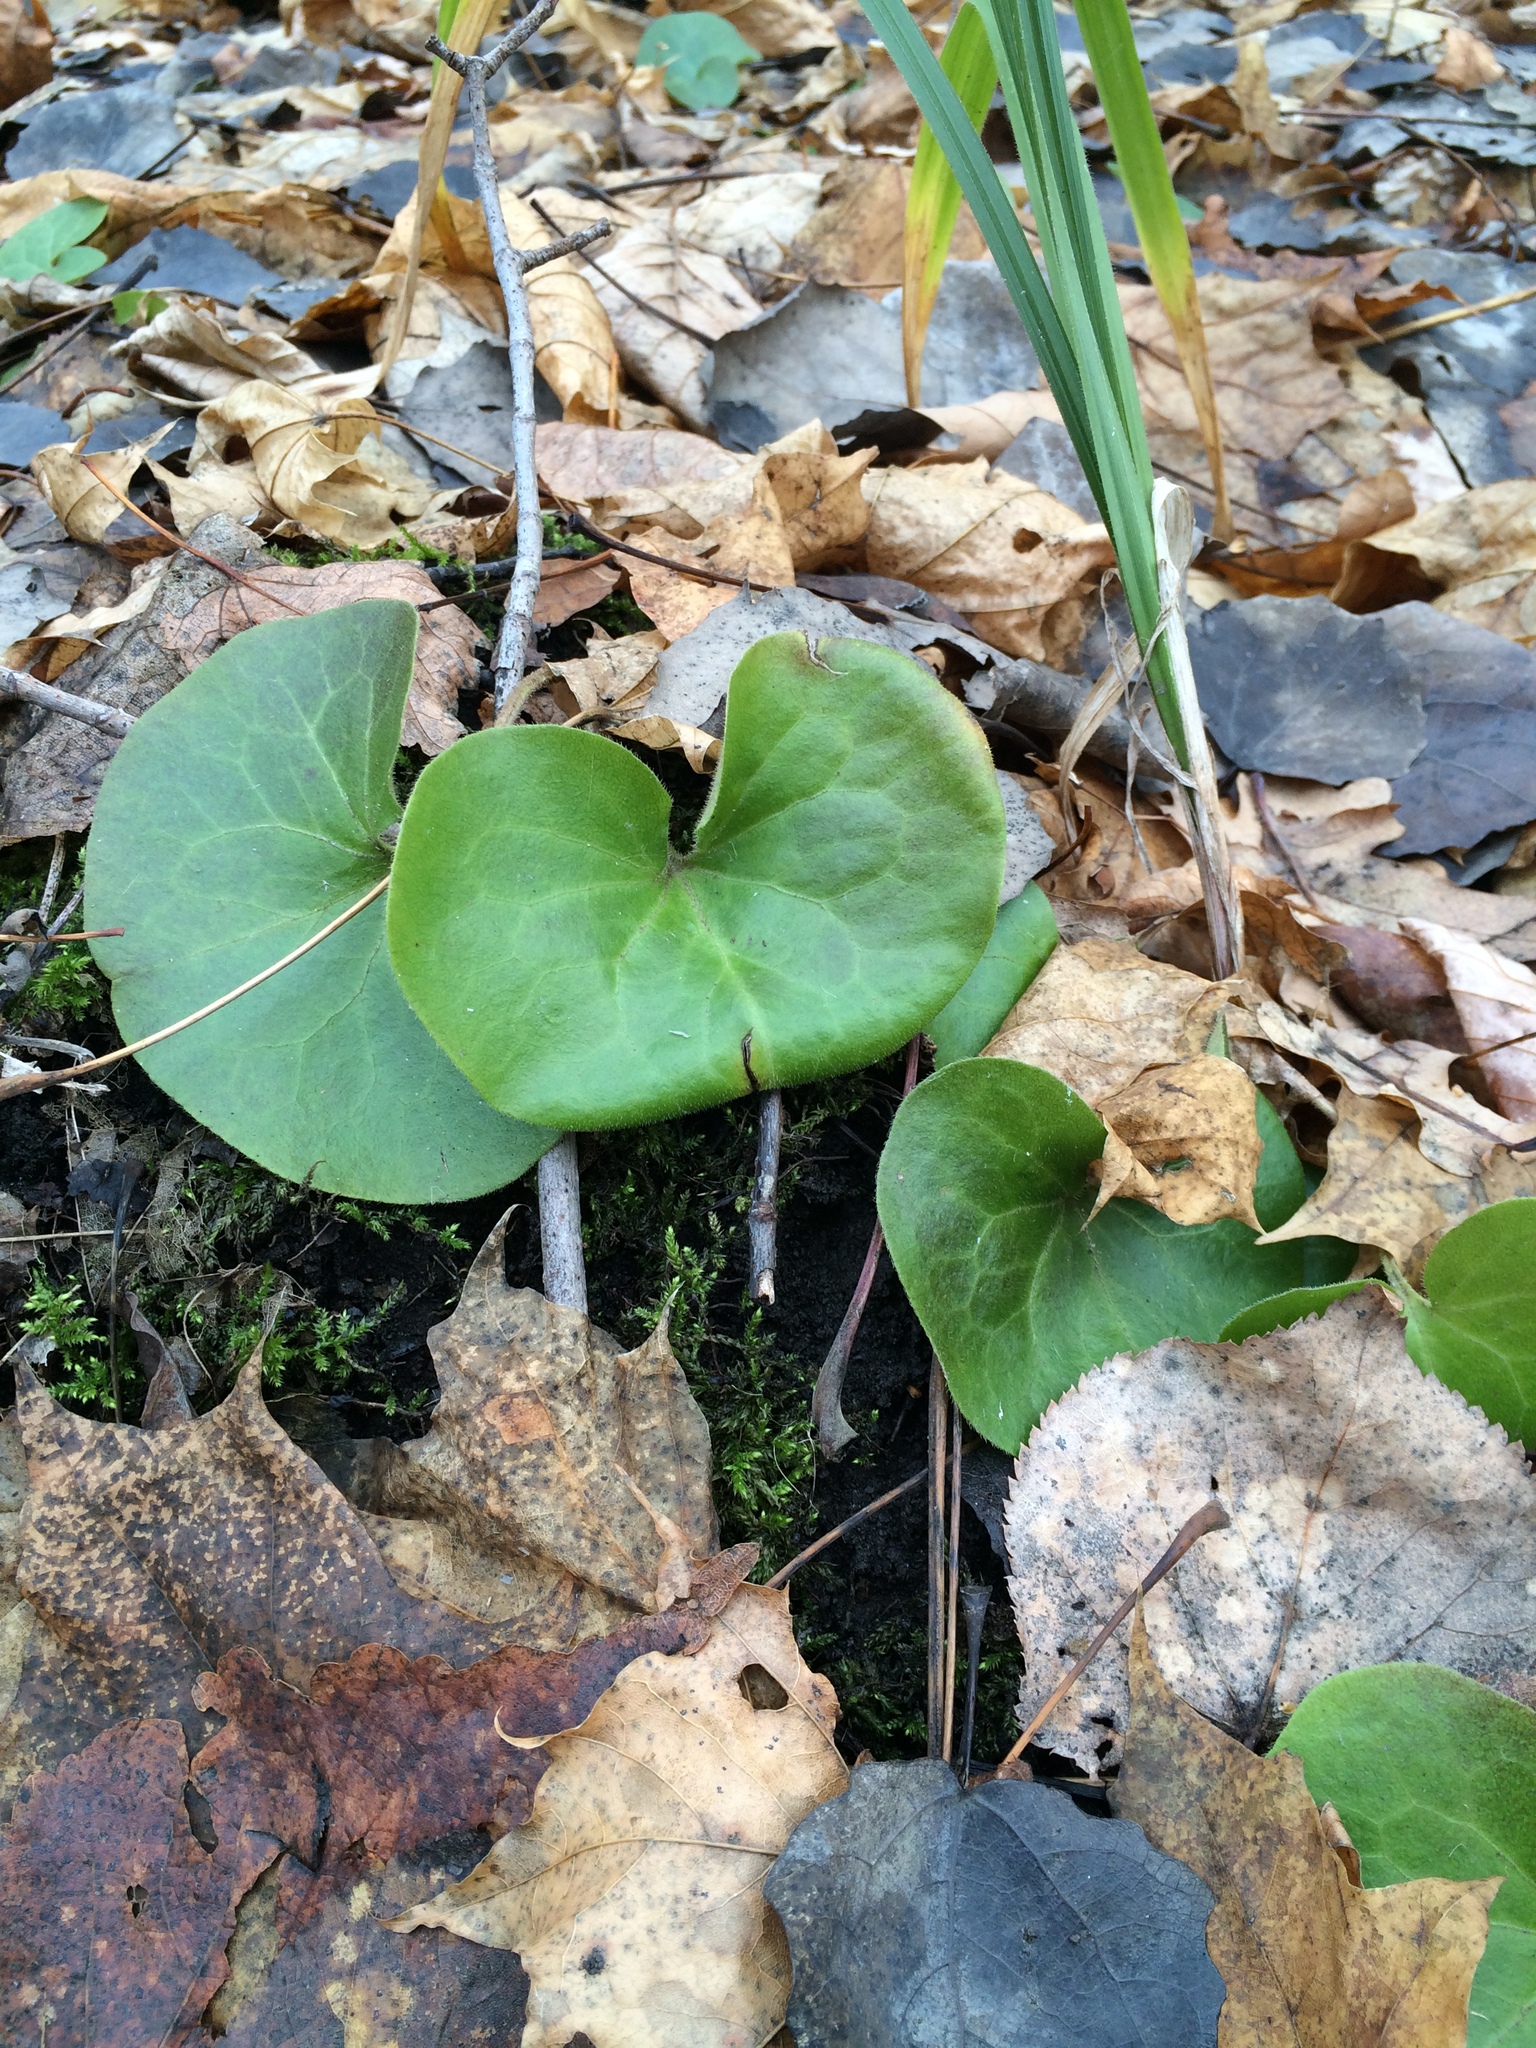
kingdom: Plantae
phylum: Tracheophyta
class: Magnoliopsida
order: Piperales
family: Aristolochiaceae
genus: Asarum
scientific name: Asarum europaeum
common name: Asarabacca
